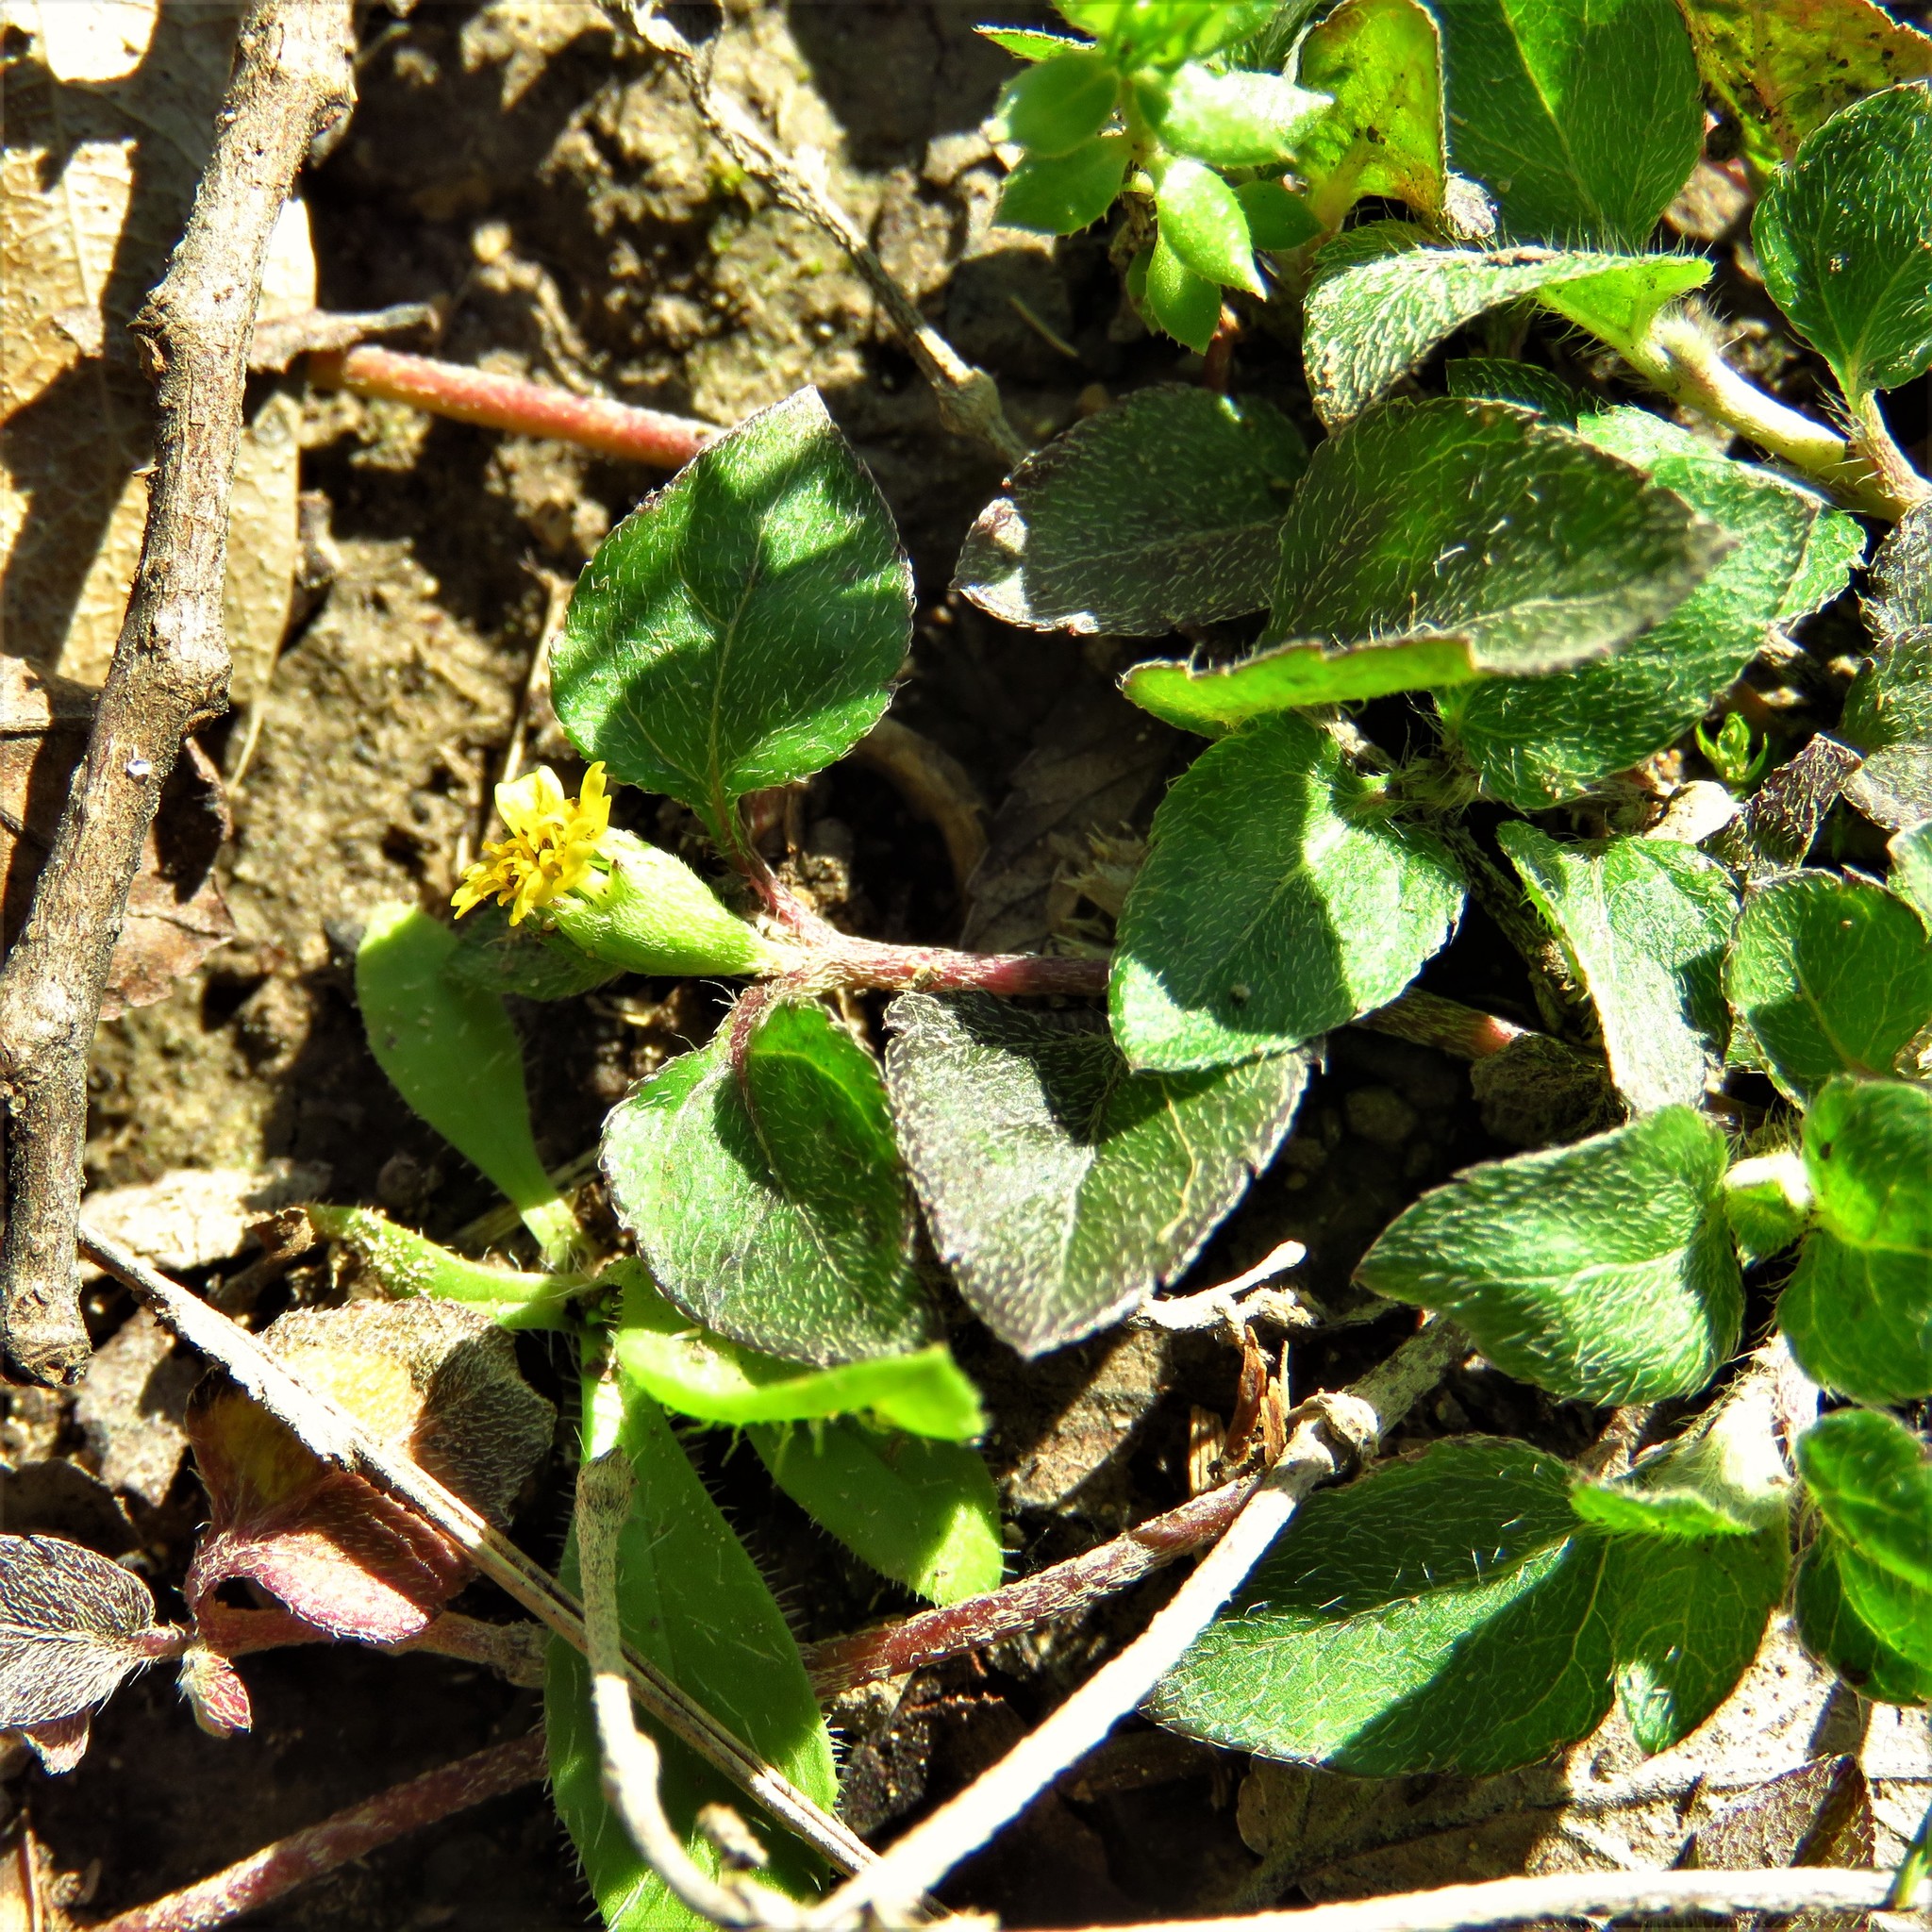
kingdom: Plantae
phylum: Tracheophyta
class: Magnoliopsida
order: Asterales
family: Asteraceae
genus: Calyptocarpus
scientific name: Calyptocarpus vialis
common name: Straggler daisy
